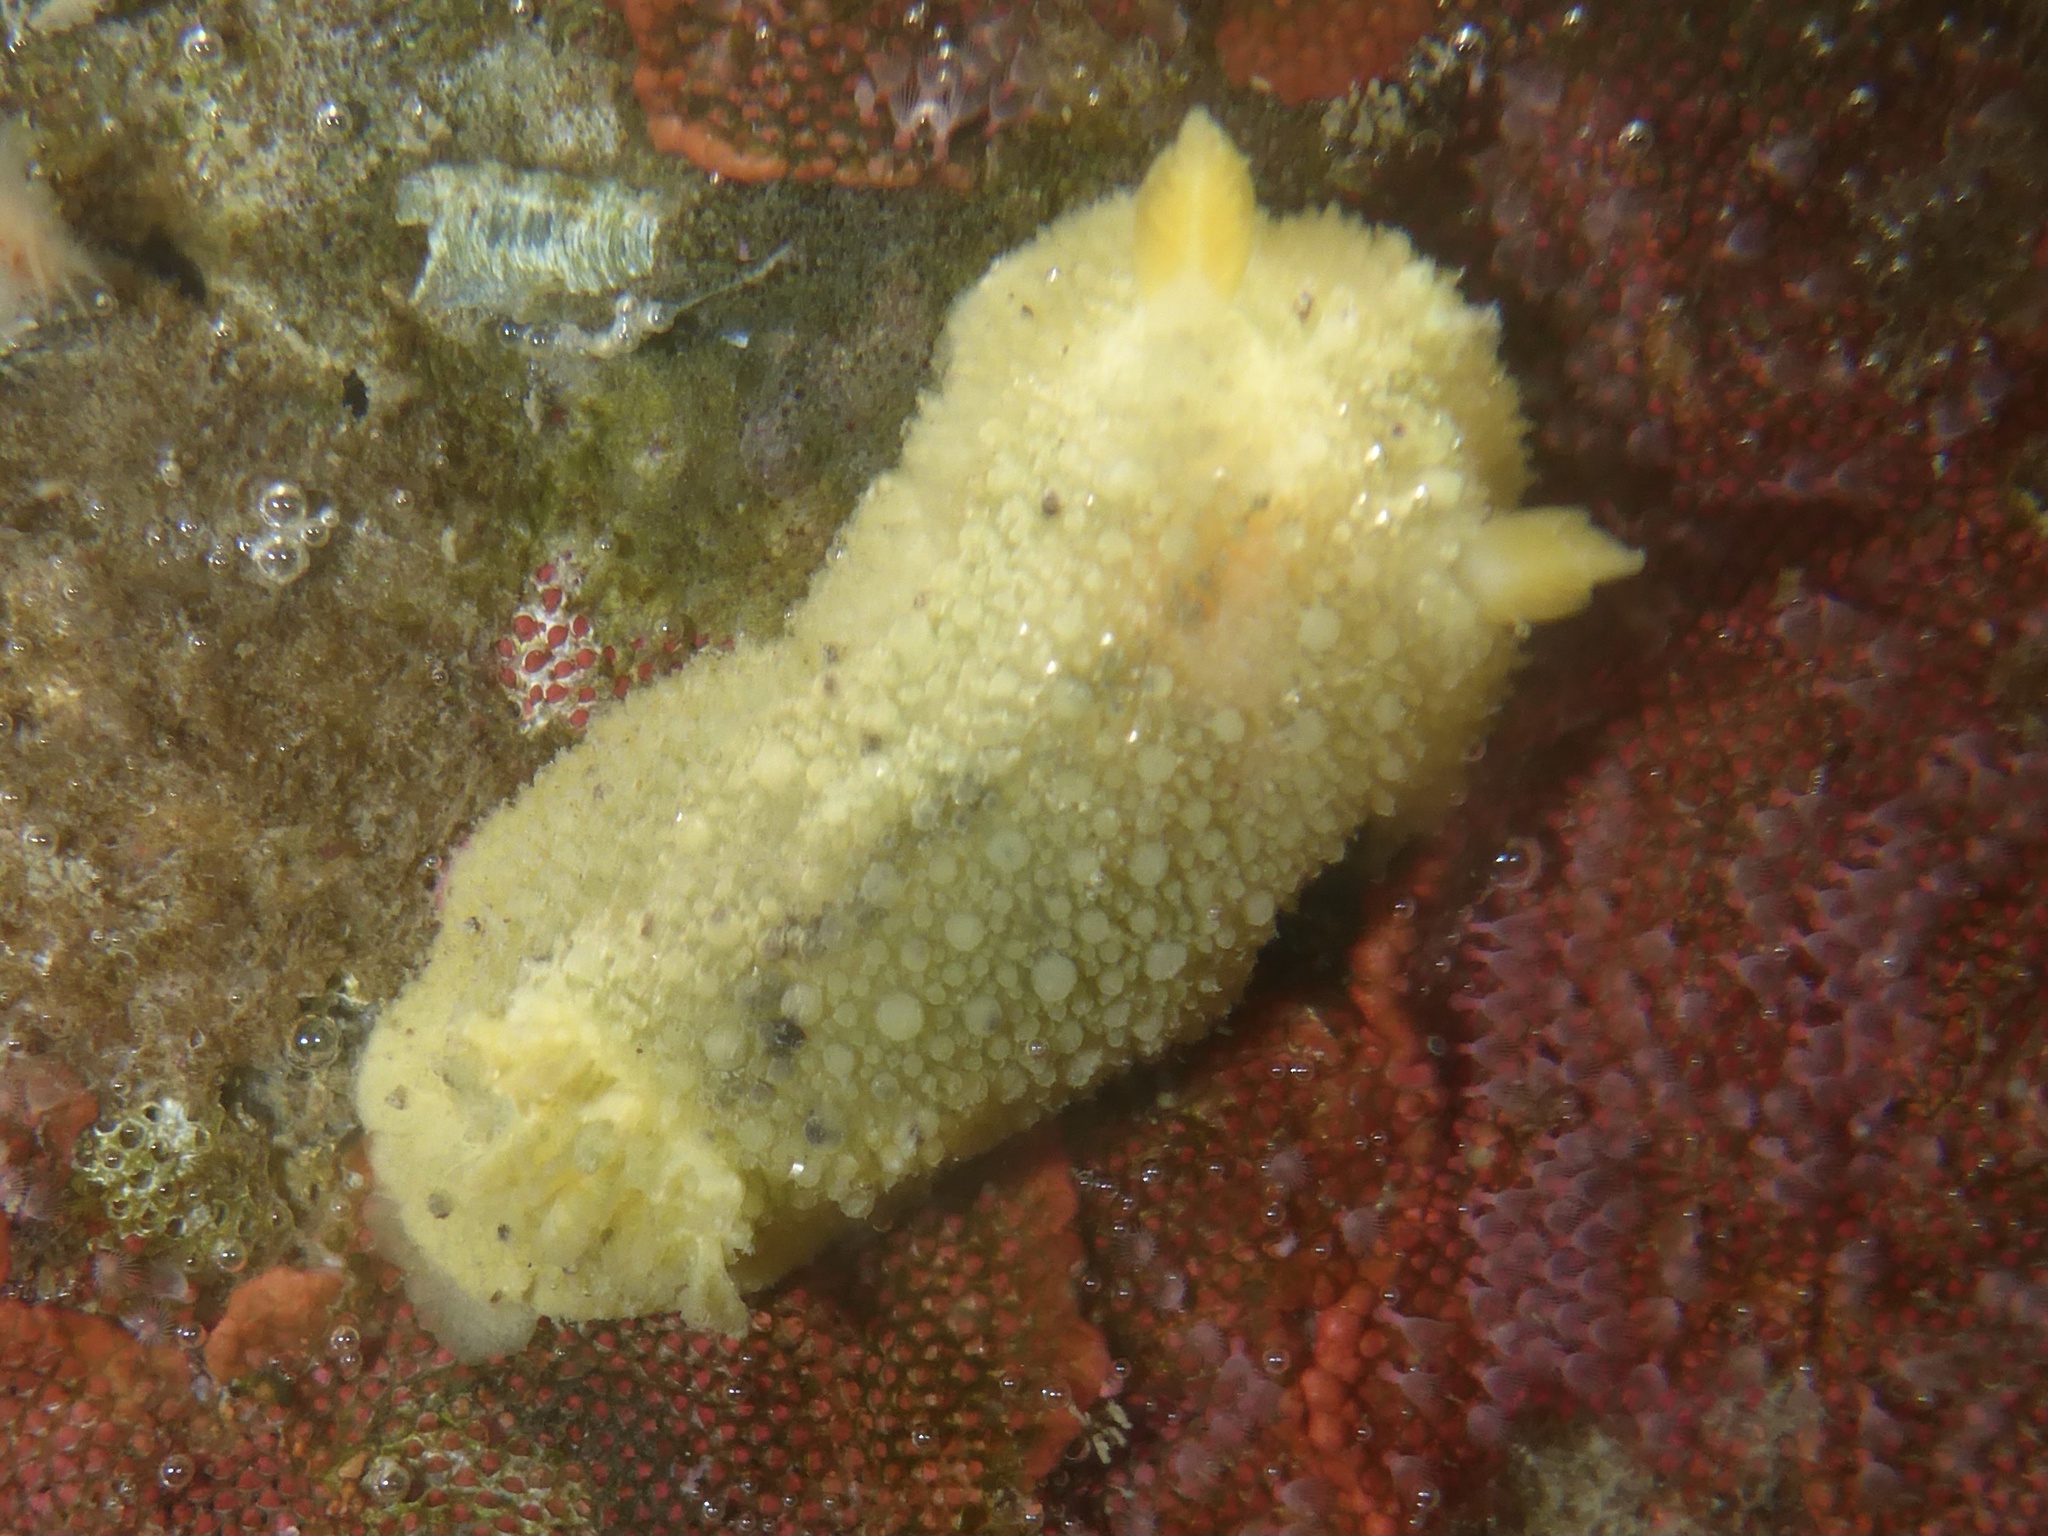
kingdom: Animalia
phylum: Mollusca
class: Gastropoda
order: Nudibranchia
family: Dorididae
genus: Doris
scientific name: Doris montereyensis
